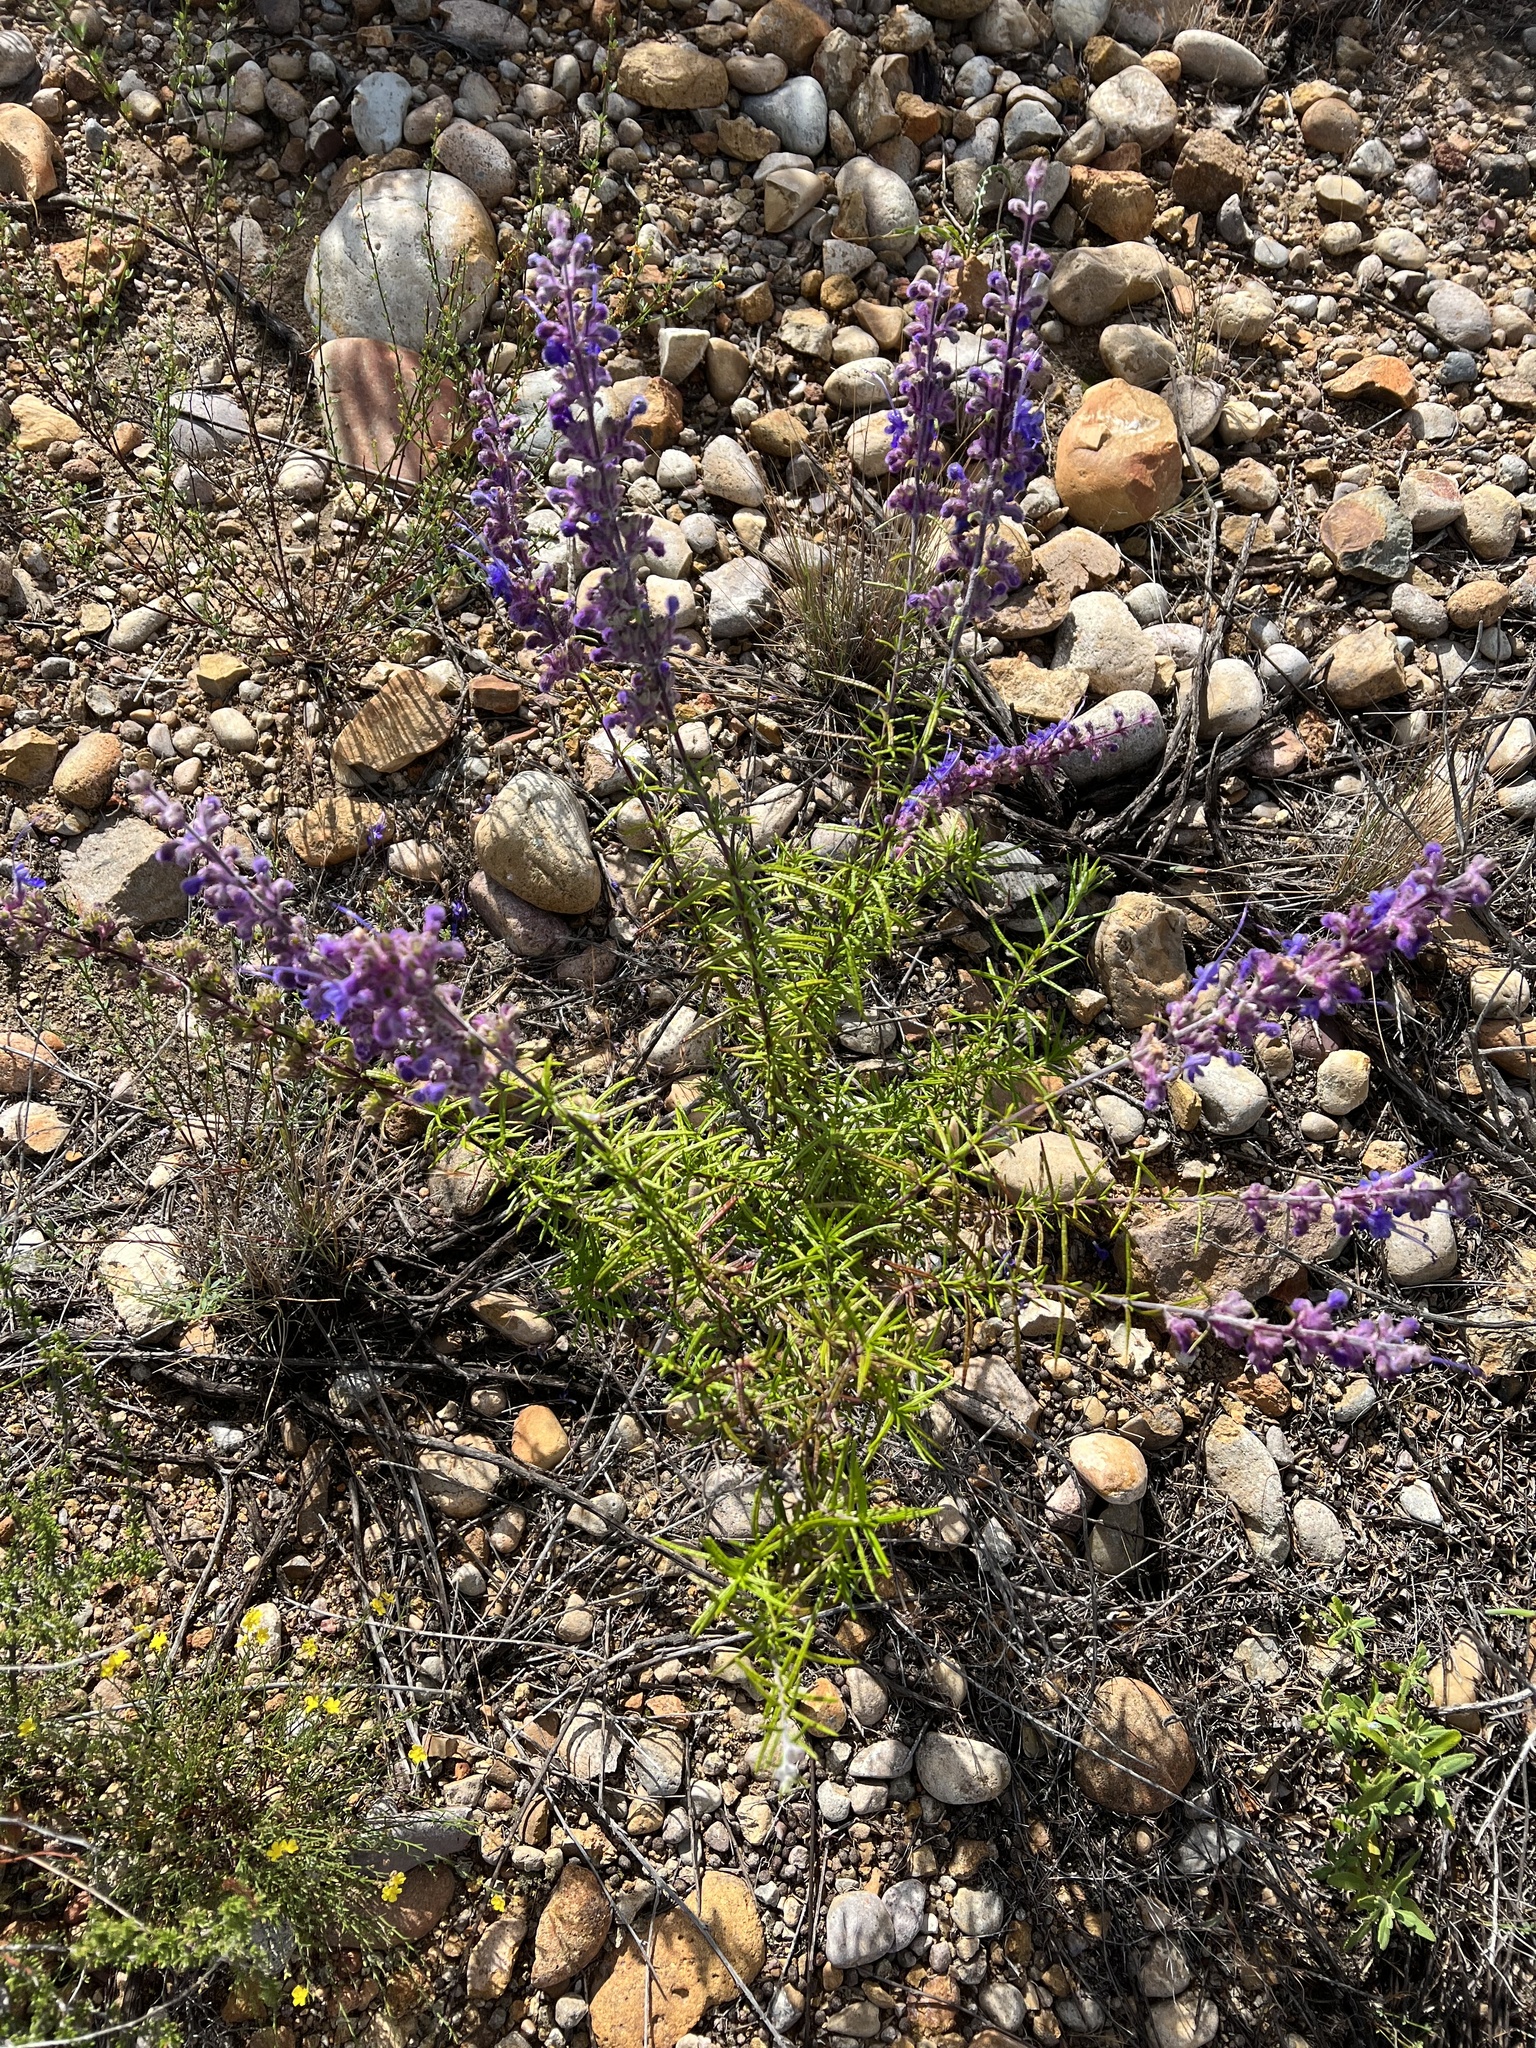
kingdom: Plantae
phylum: Tracheophyta
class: Magnoliopsida
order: Lamiales
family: Lamiaceae
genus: Trichostema
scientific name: Trichostema lanatum
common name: Woolly bluecurls
